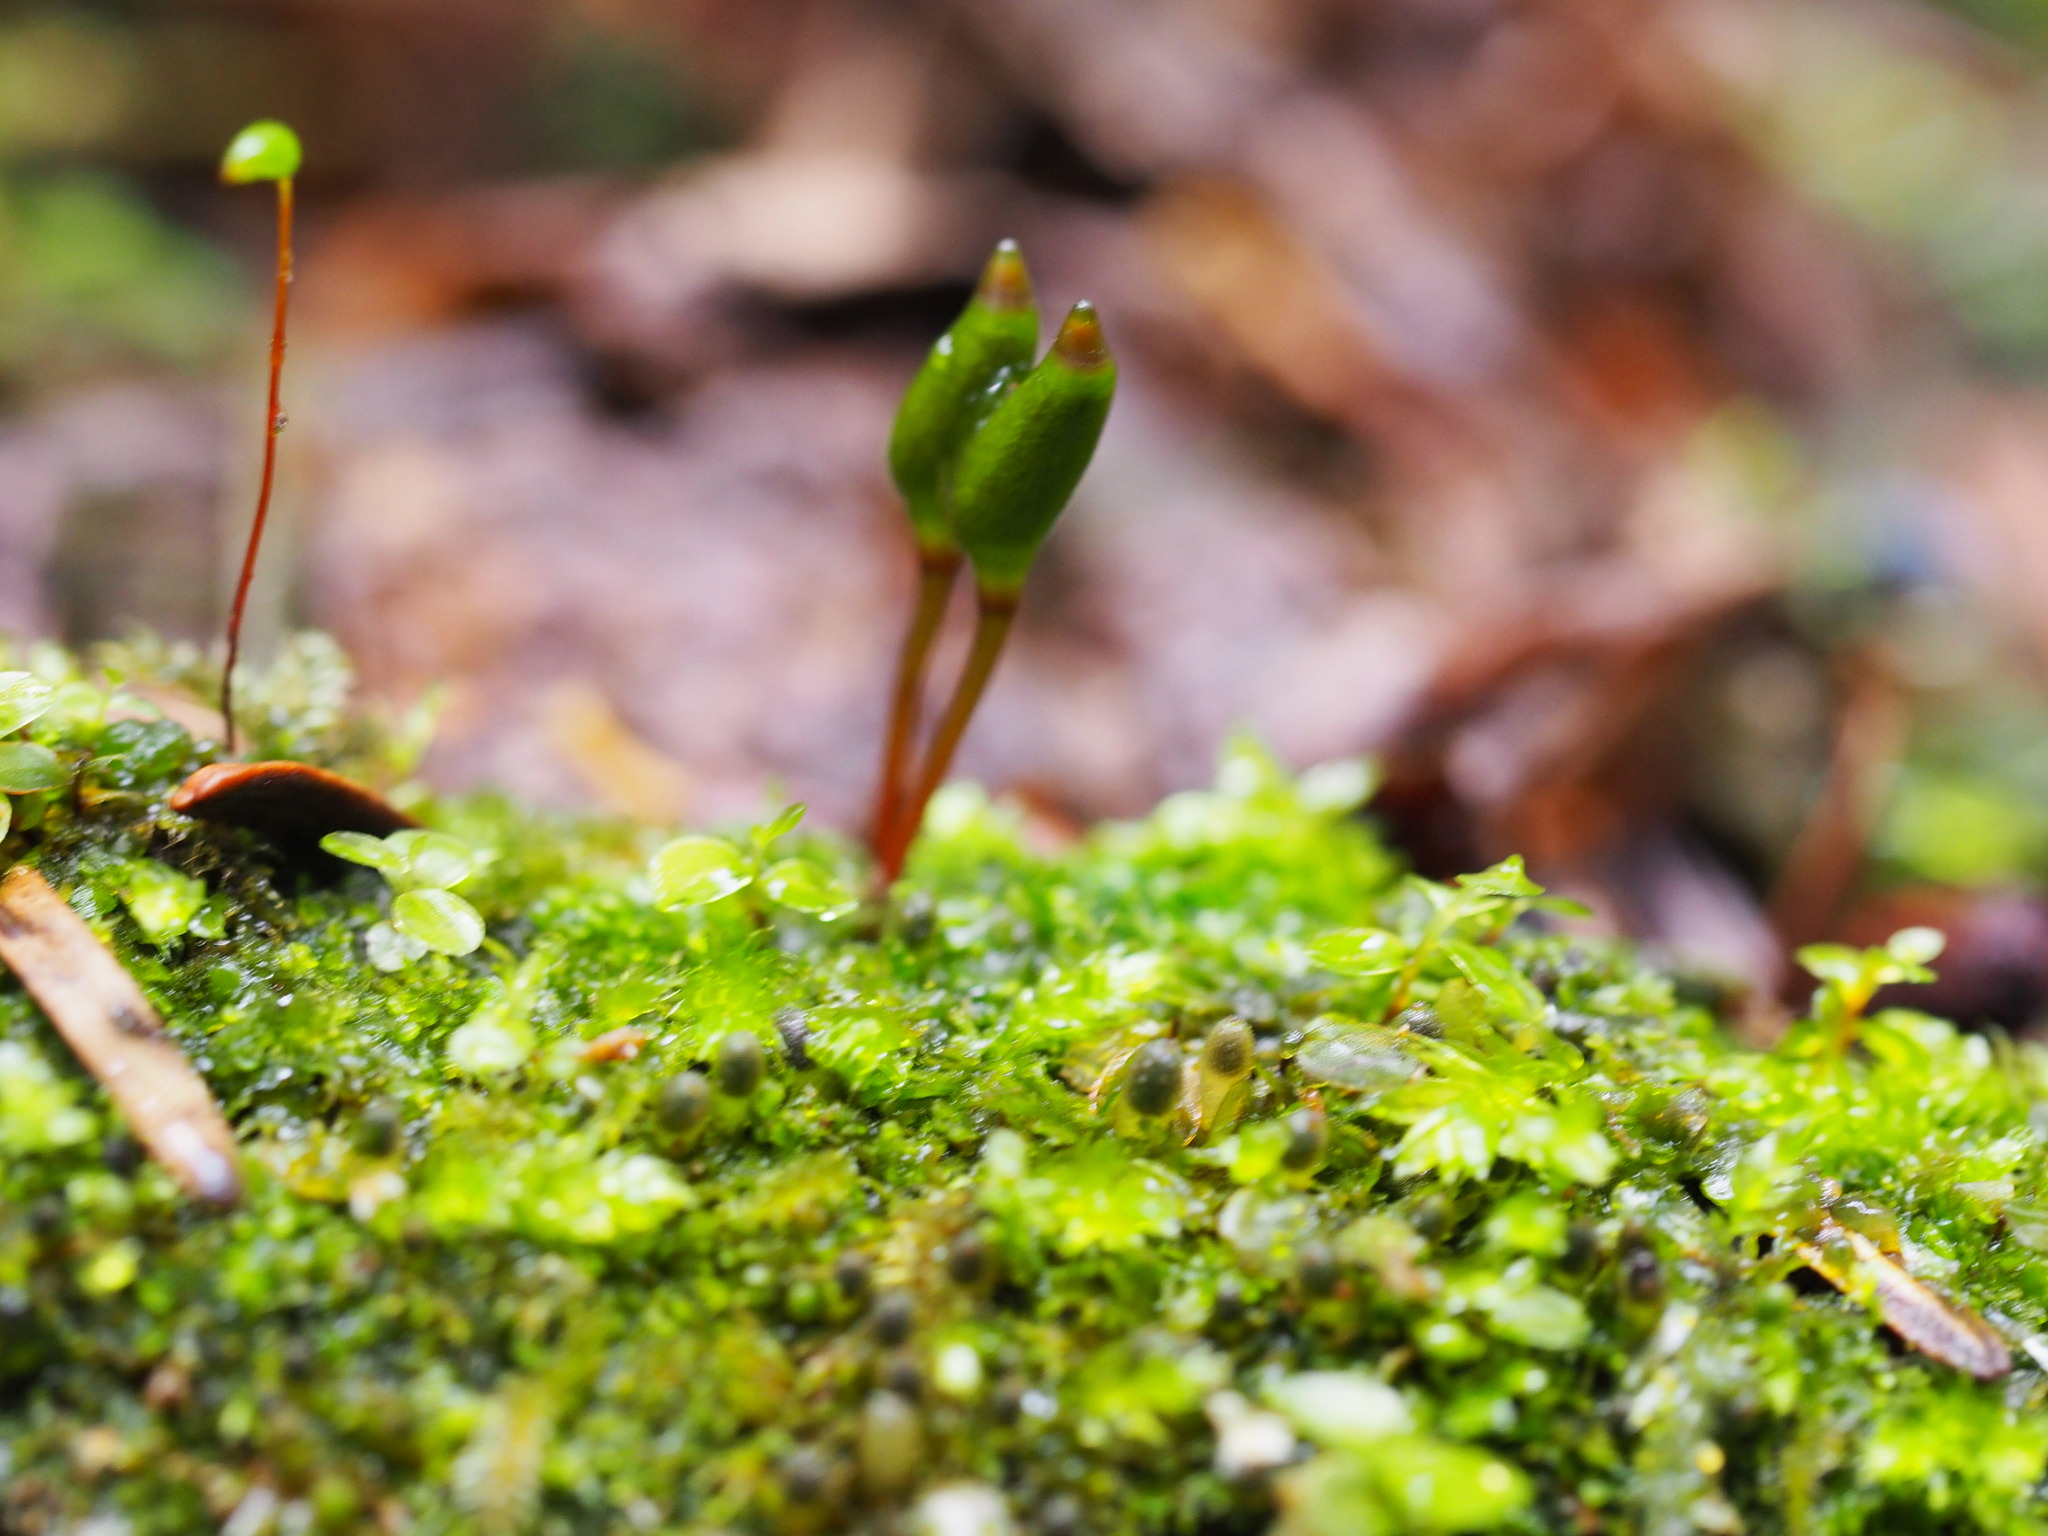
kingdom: Plantae
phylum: Bryophyta
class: Bryopsida
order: Buxbaumiales
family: Buxbaumiaceae
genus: Buxbaumia
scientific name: Buxbaumia viridis
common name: Green shield-moss
